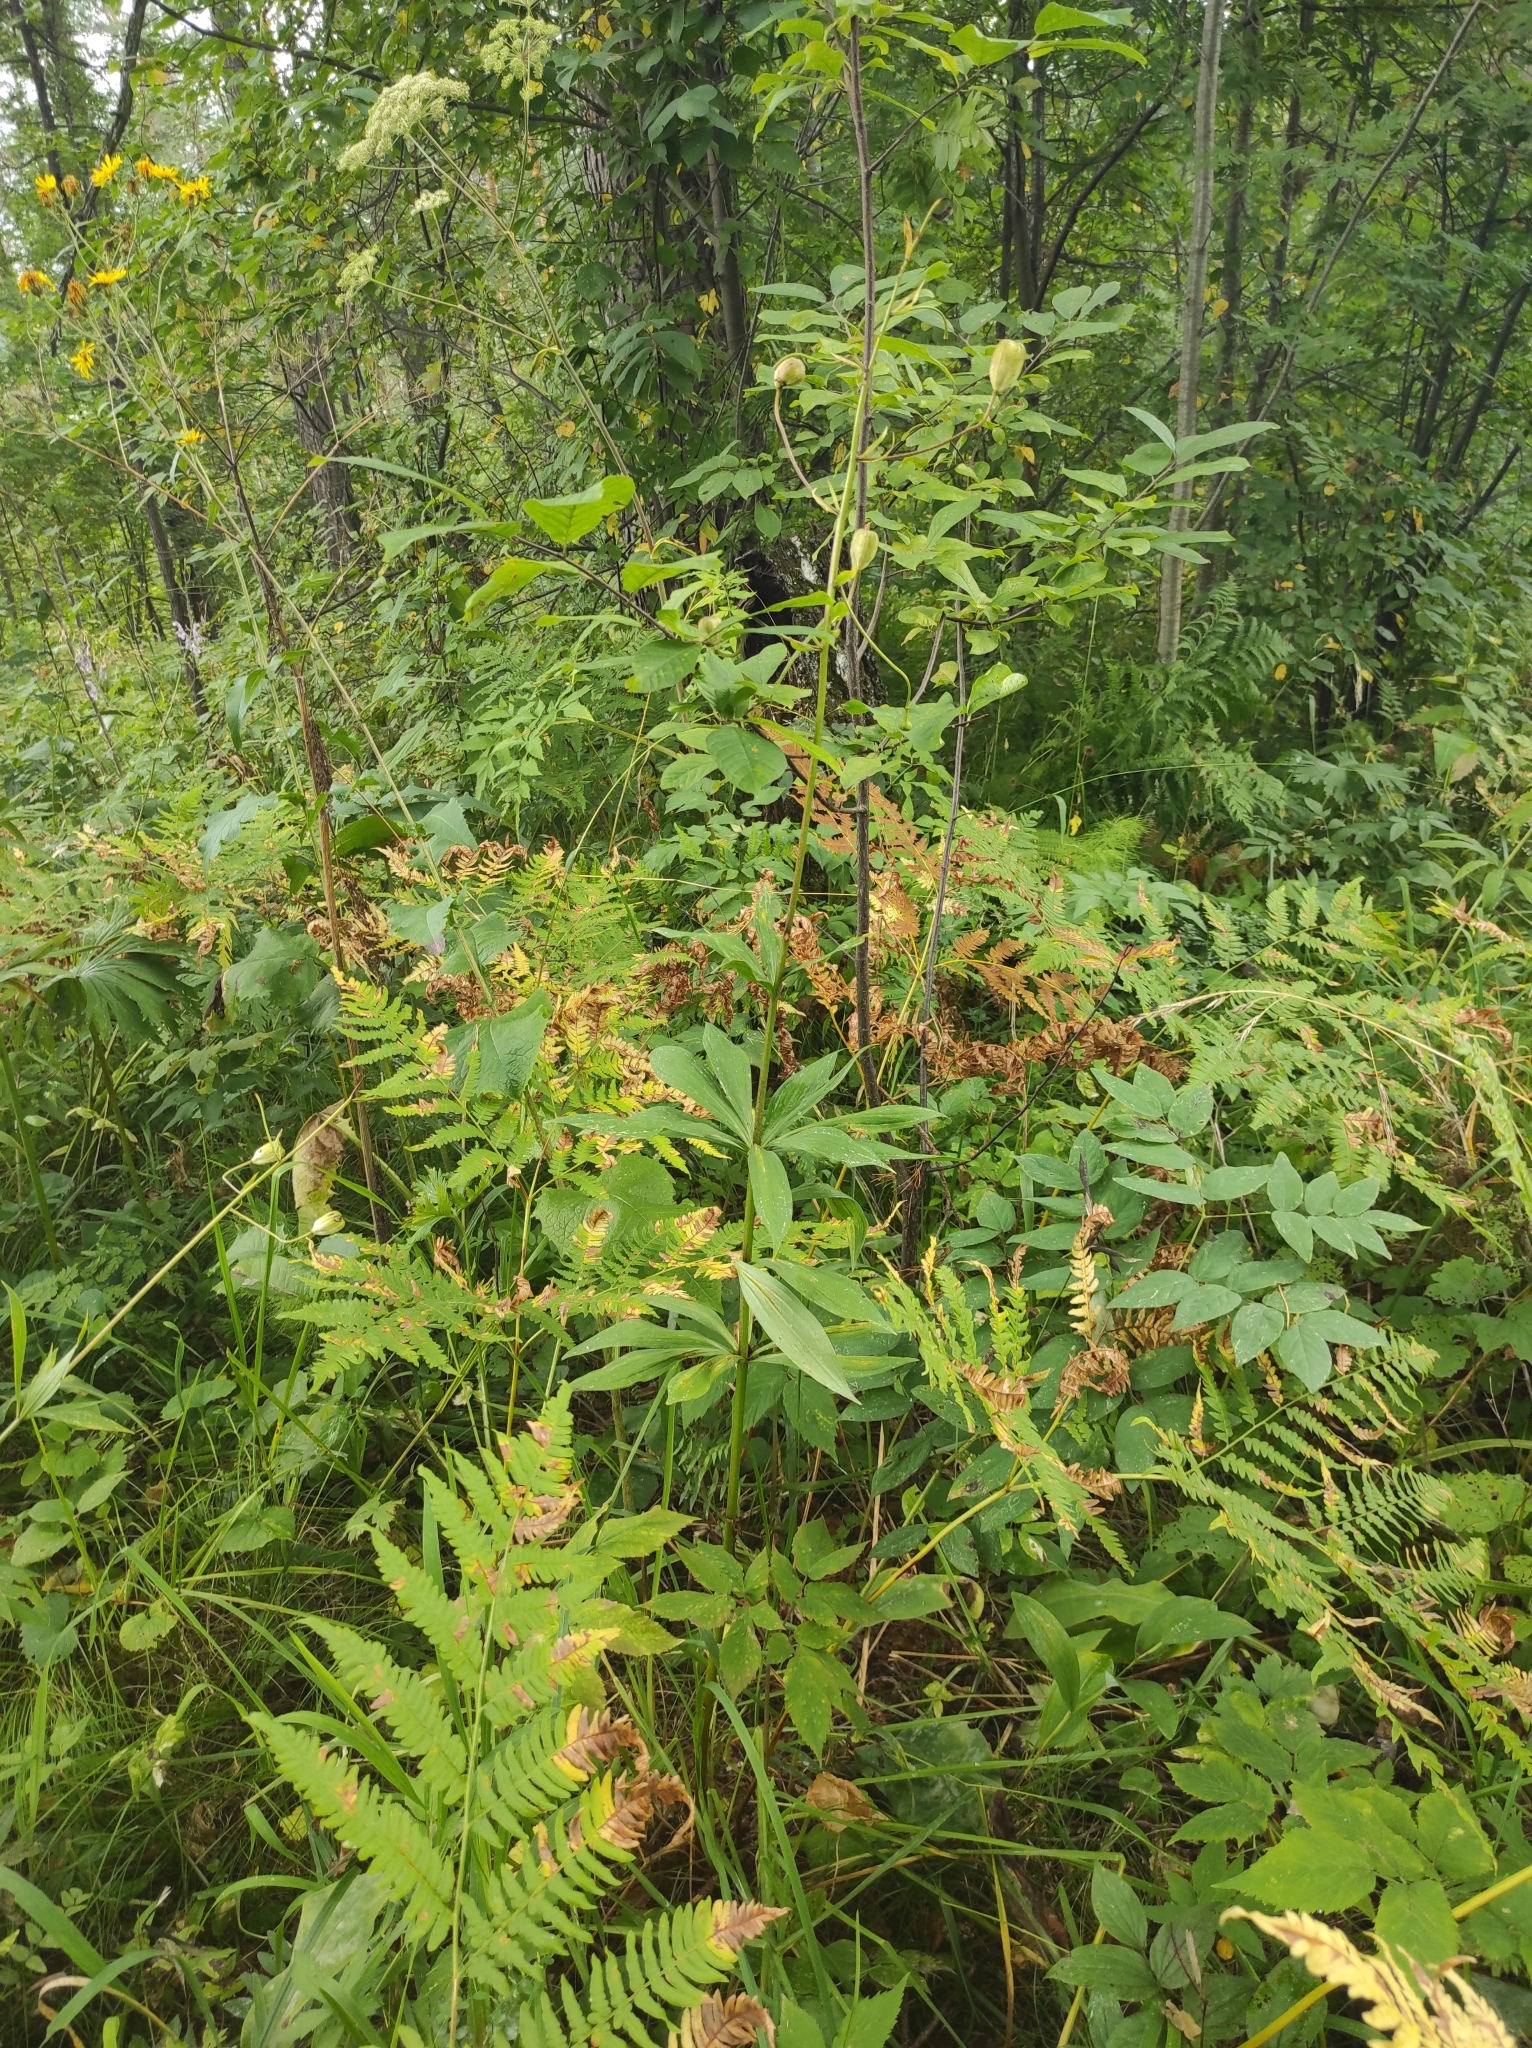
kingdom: Plantae
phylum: Tracheophyta
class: Liliopsida
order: Liliales
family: Liliaceae
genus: Lilium
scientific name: Lilium martagon
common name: Martagon lily
